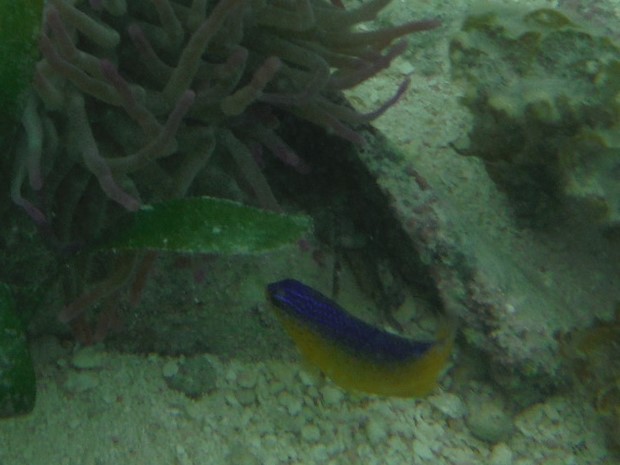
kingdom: Animalia
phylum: Chordata
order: Perciformes
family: Pomacentridae
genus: Stegastes
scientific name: Stegastes leucostictus
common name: Beaugregory
